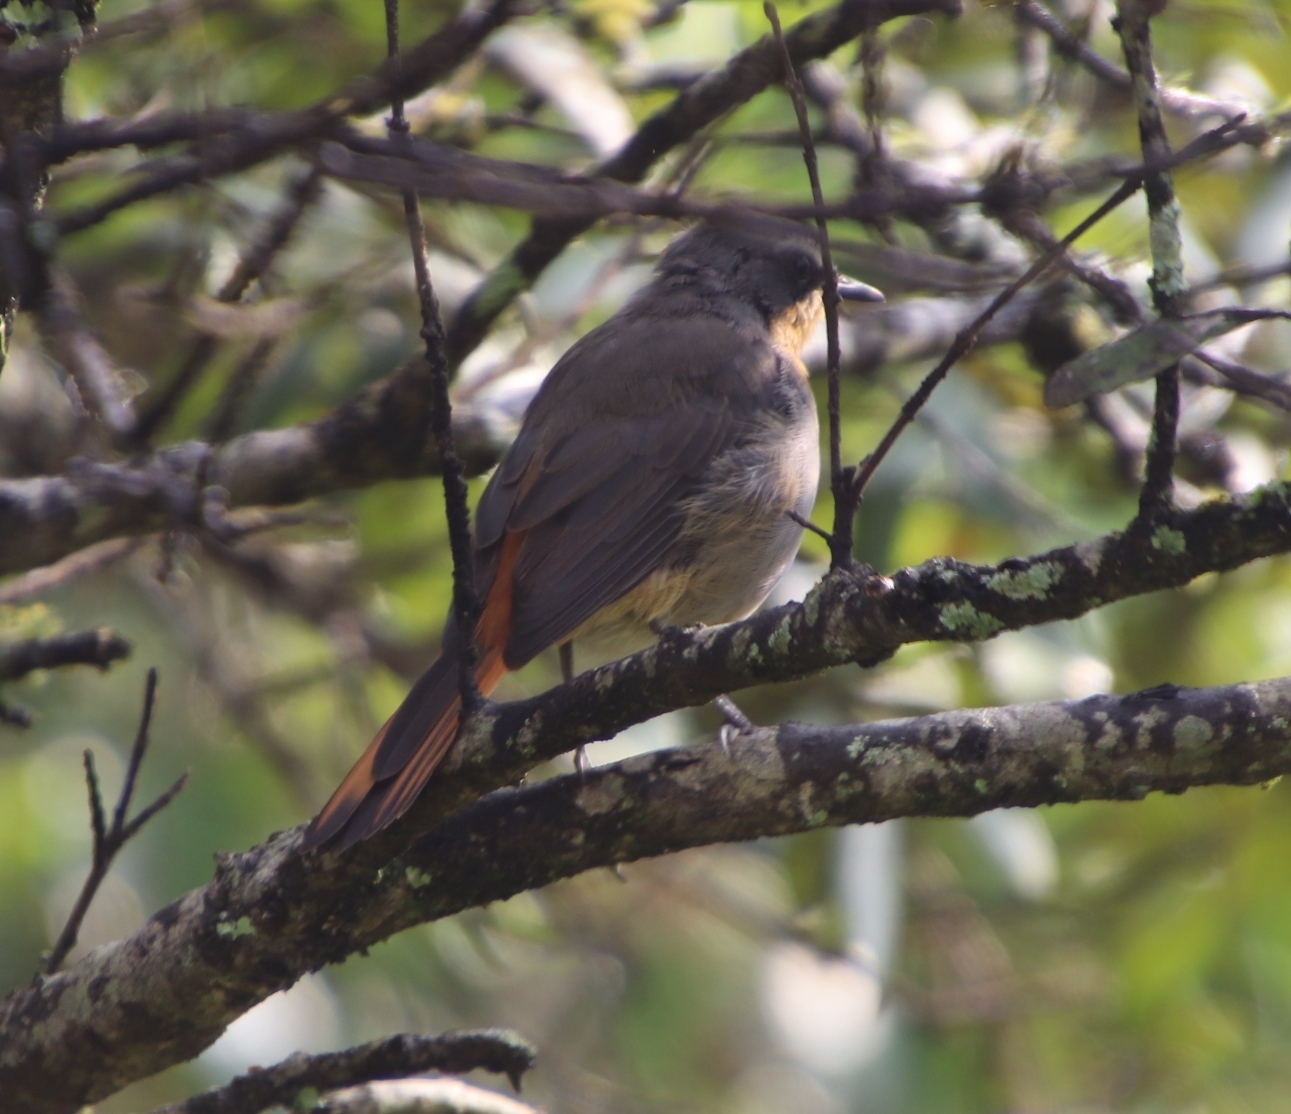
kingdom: Animalia
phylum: Chordata
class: Aves
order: Passeriformes
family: Muscicapidae
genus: Cossypha
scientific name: Cossypha caffra
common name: Cape robin-chat
